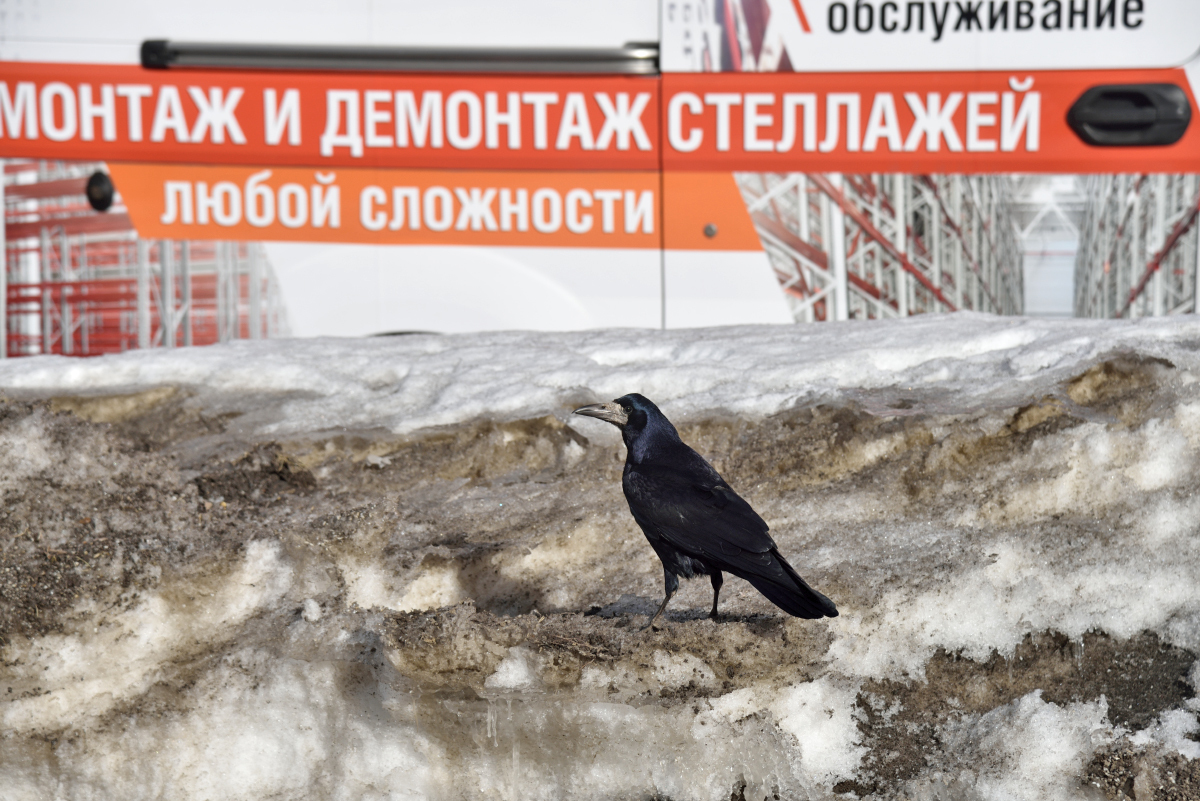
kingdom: Animalia
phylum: Chordata
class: Aves
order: Passeriformes
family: Corvidae
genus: Corvus
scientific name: Corvus frugilegus
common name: Rook
